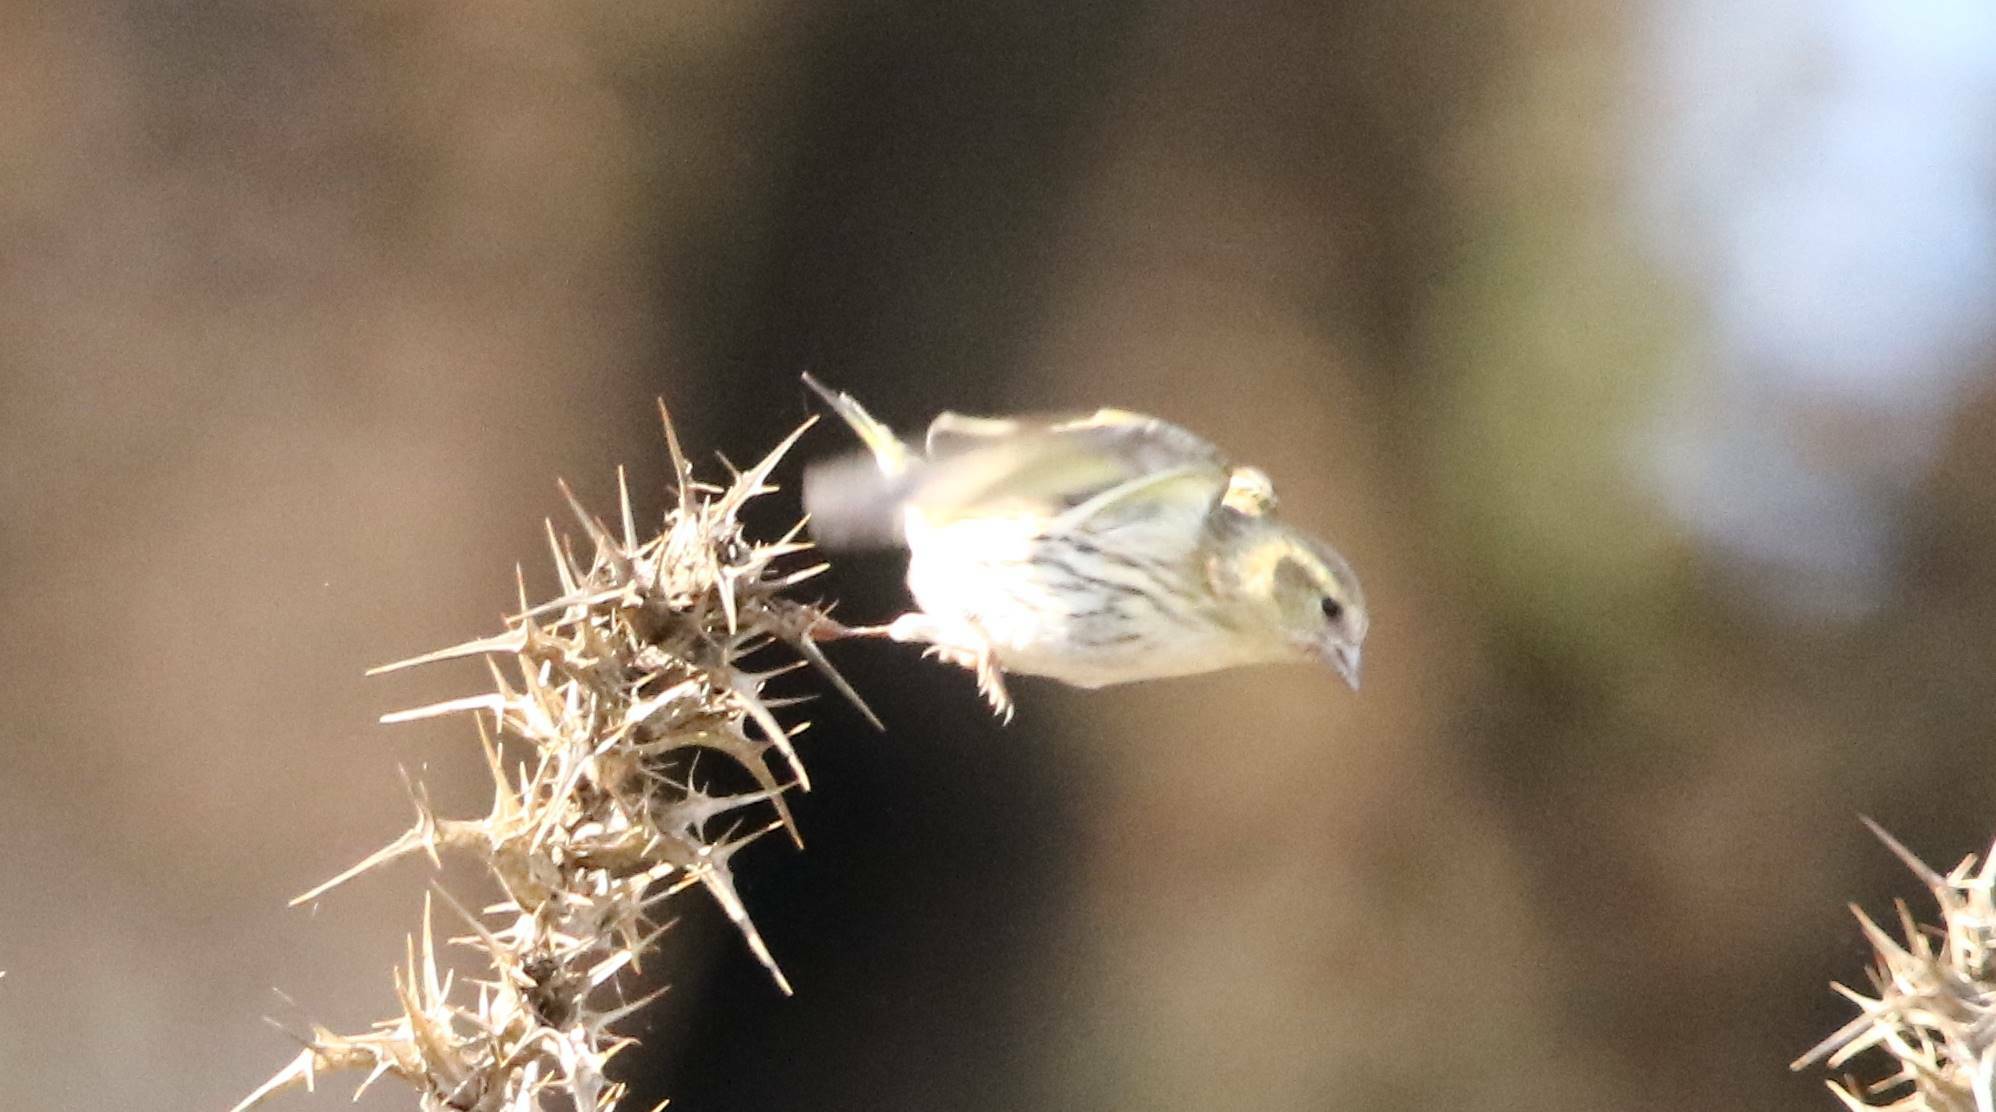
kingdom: Animalia
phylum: Chordata
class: Aves
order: Passeriformes
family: Fringillidae
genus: Spinus
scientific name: Spinus spinus
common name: Eurasian siskin
